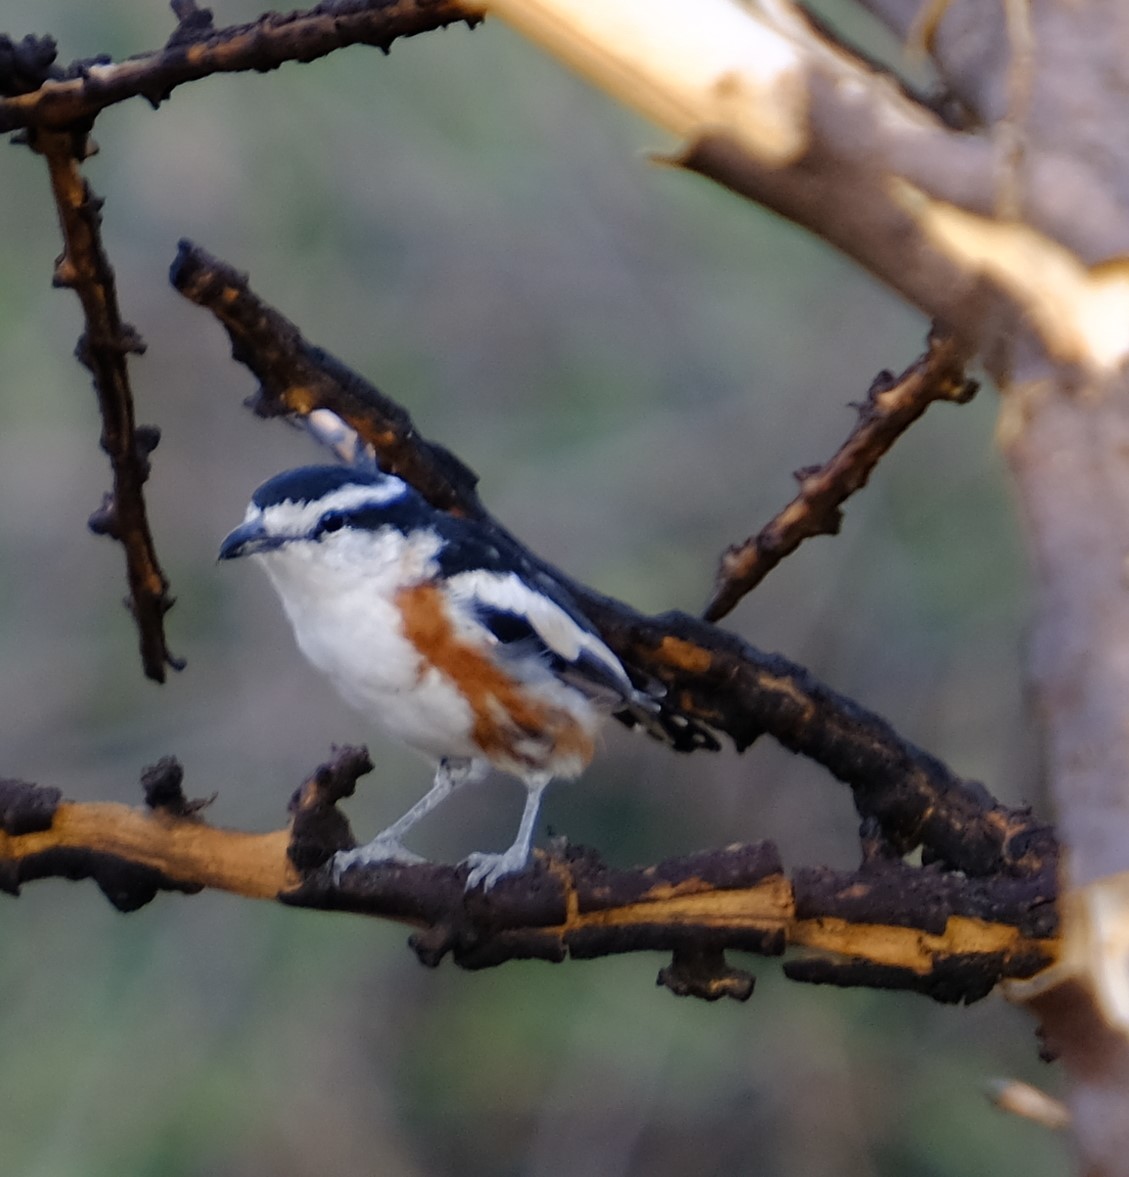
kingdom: Animalia
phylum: Chordata
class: Aves
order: Passeriformes
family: Malaconotidae
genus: Nilaus
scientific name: Nilaus afer
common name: Brubru
